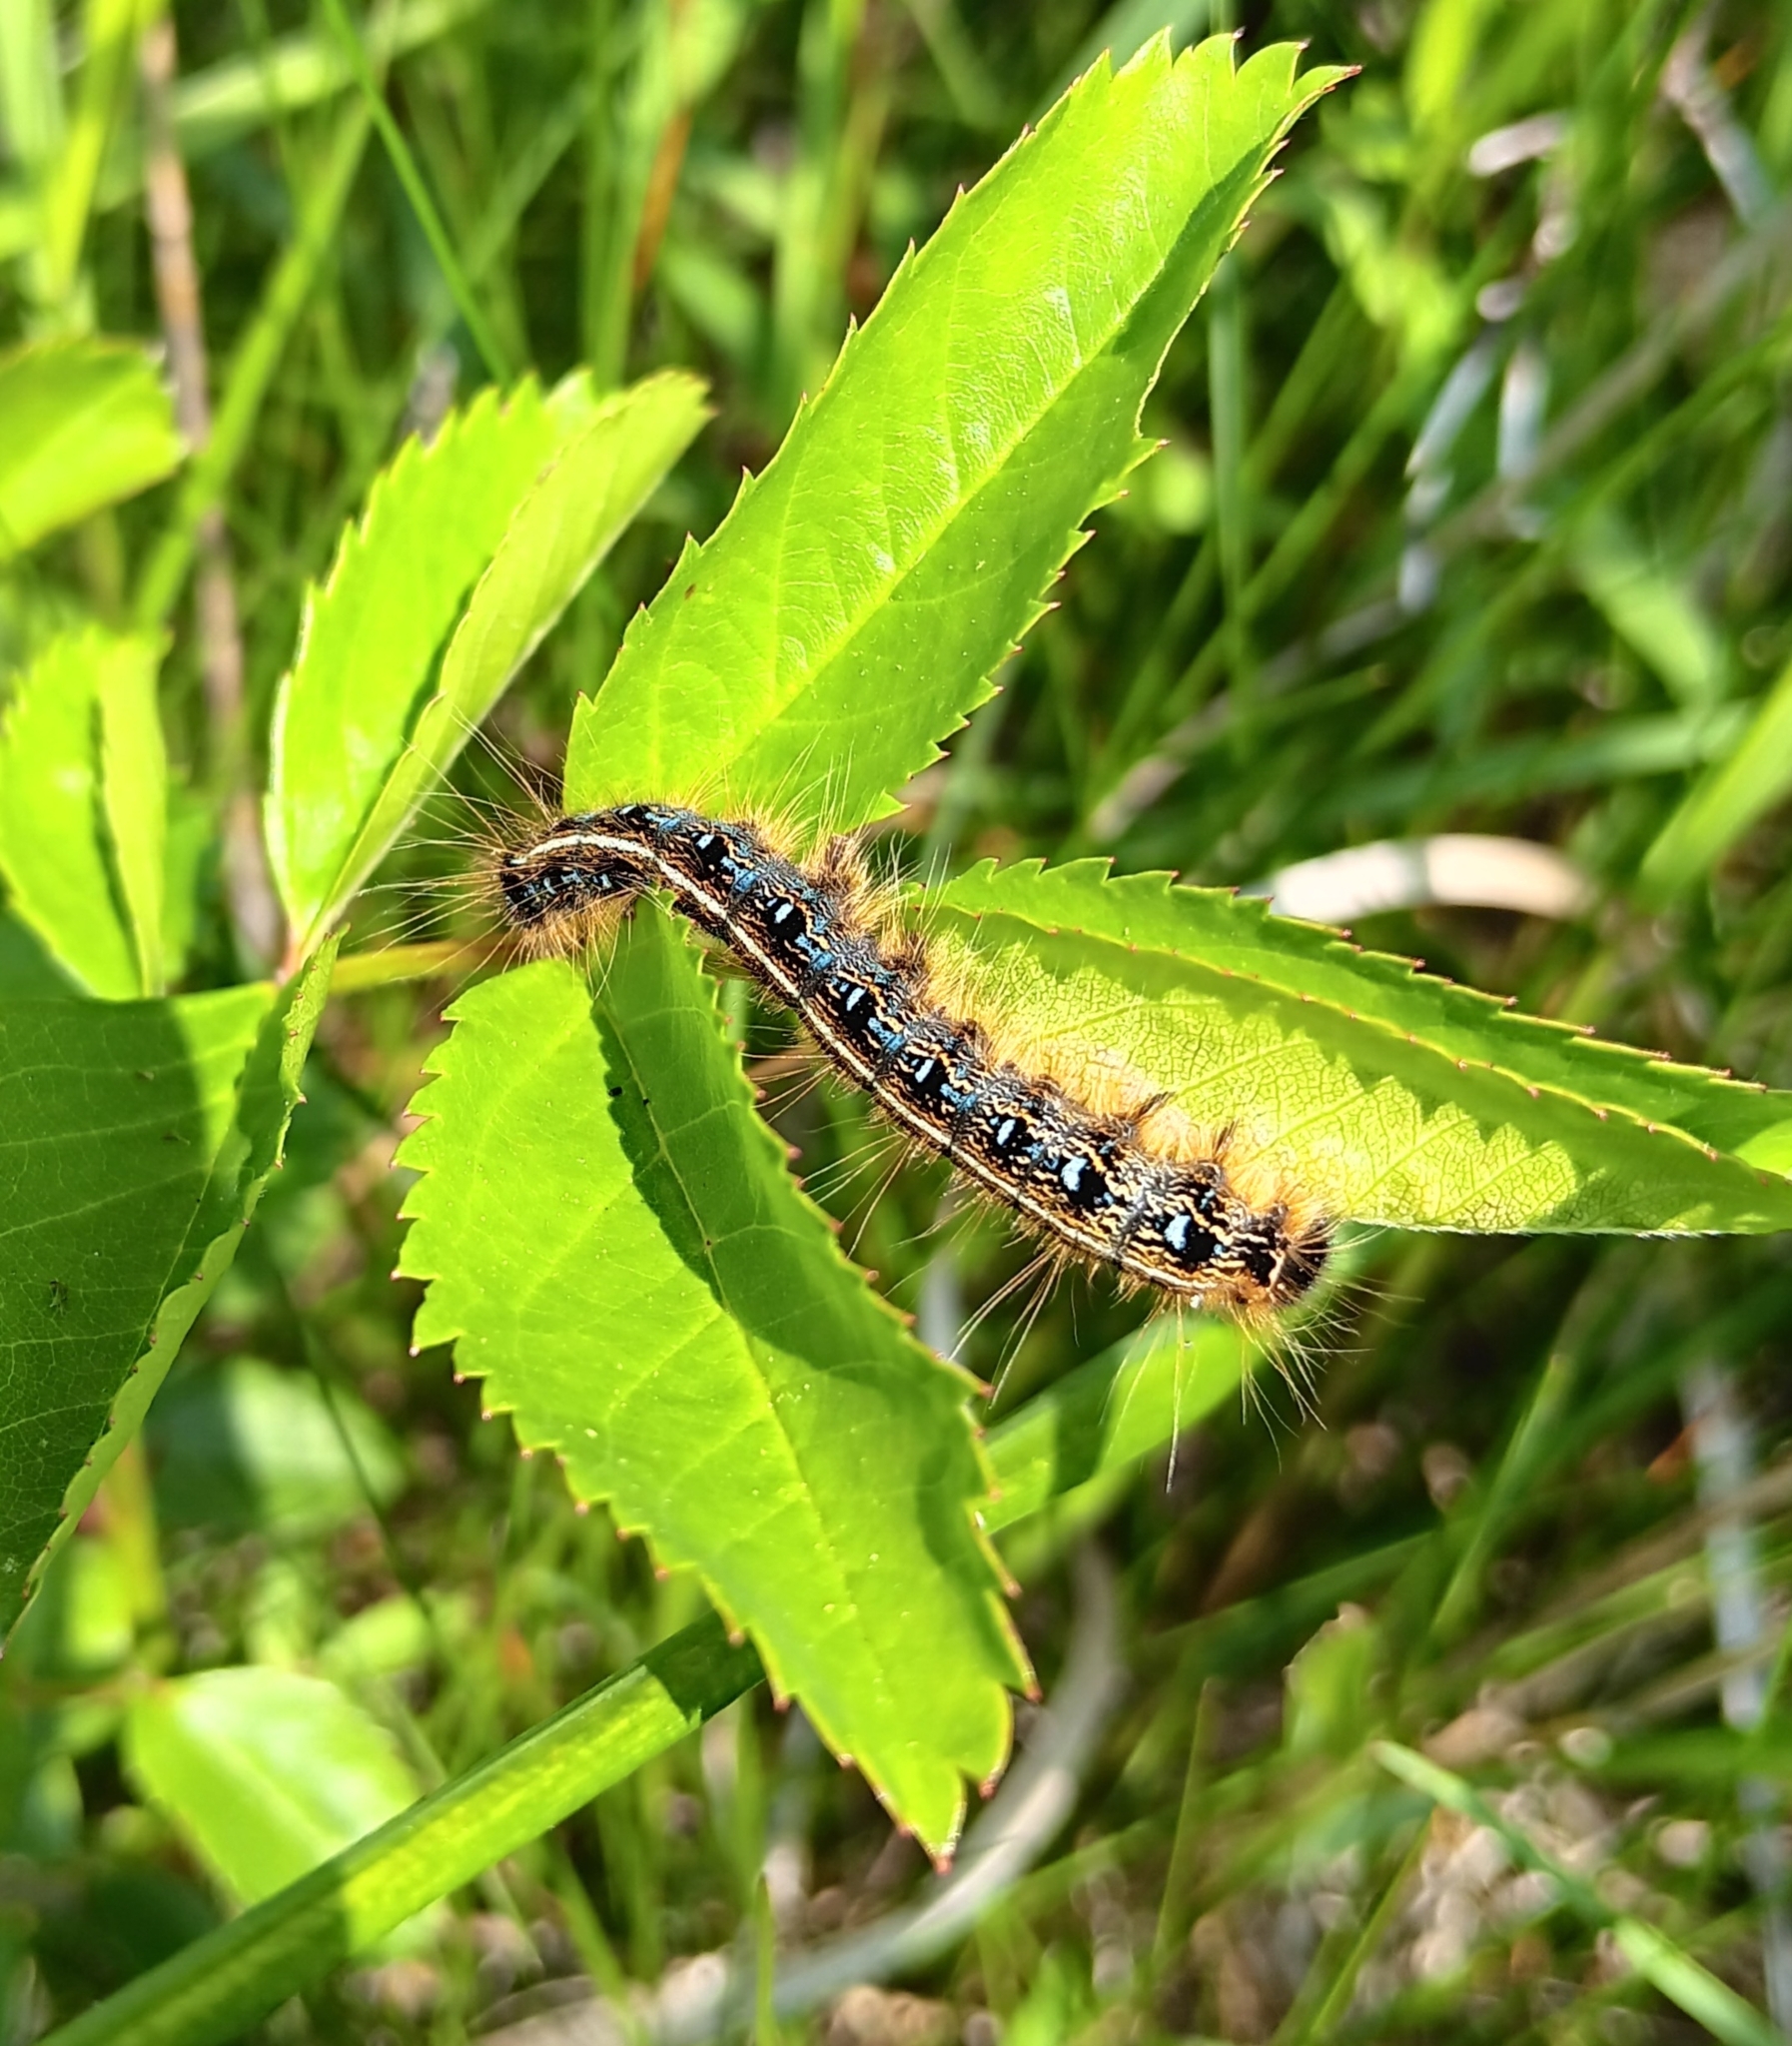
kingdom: Animalia
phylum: Arthropoda
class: Insecta
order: Lepidoptera
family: Lasiocampidae
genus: Malacosoma
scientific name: Malacosoma americana
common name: Eastern tent caterpillar moth
